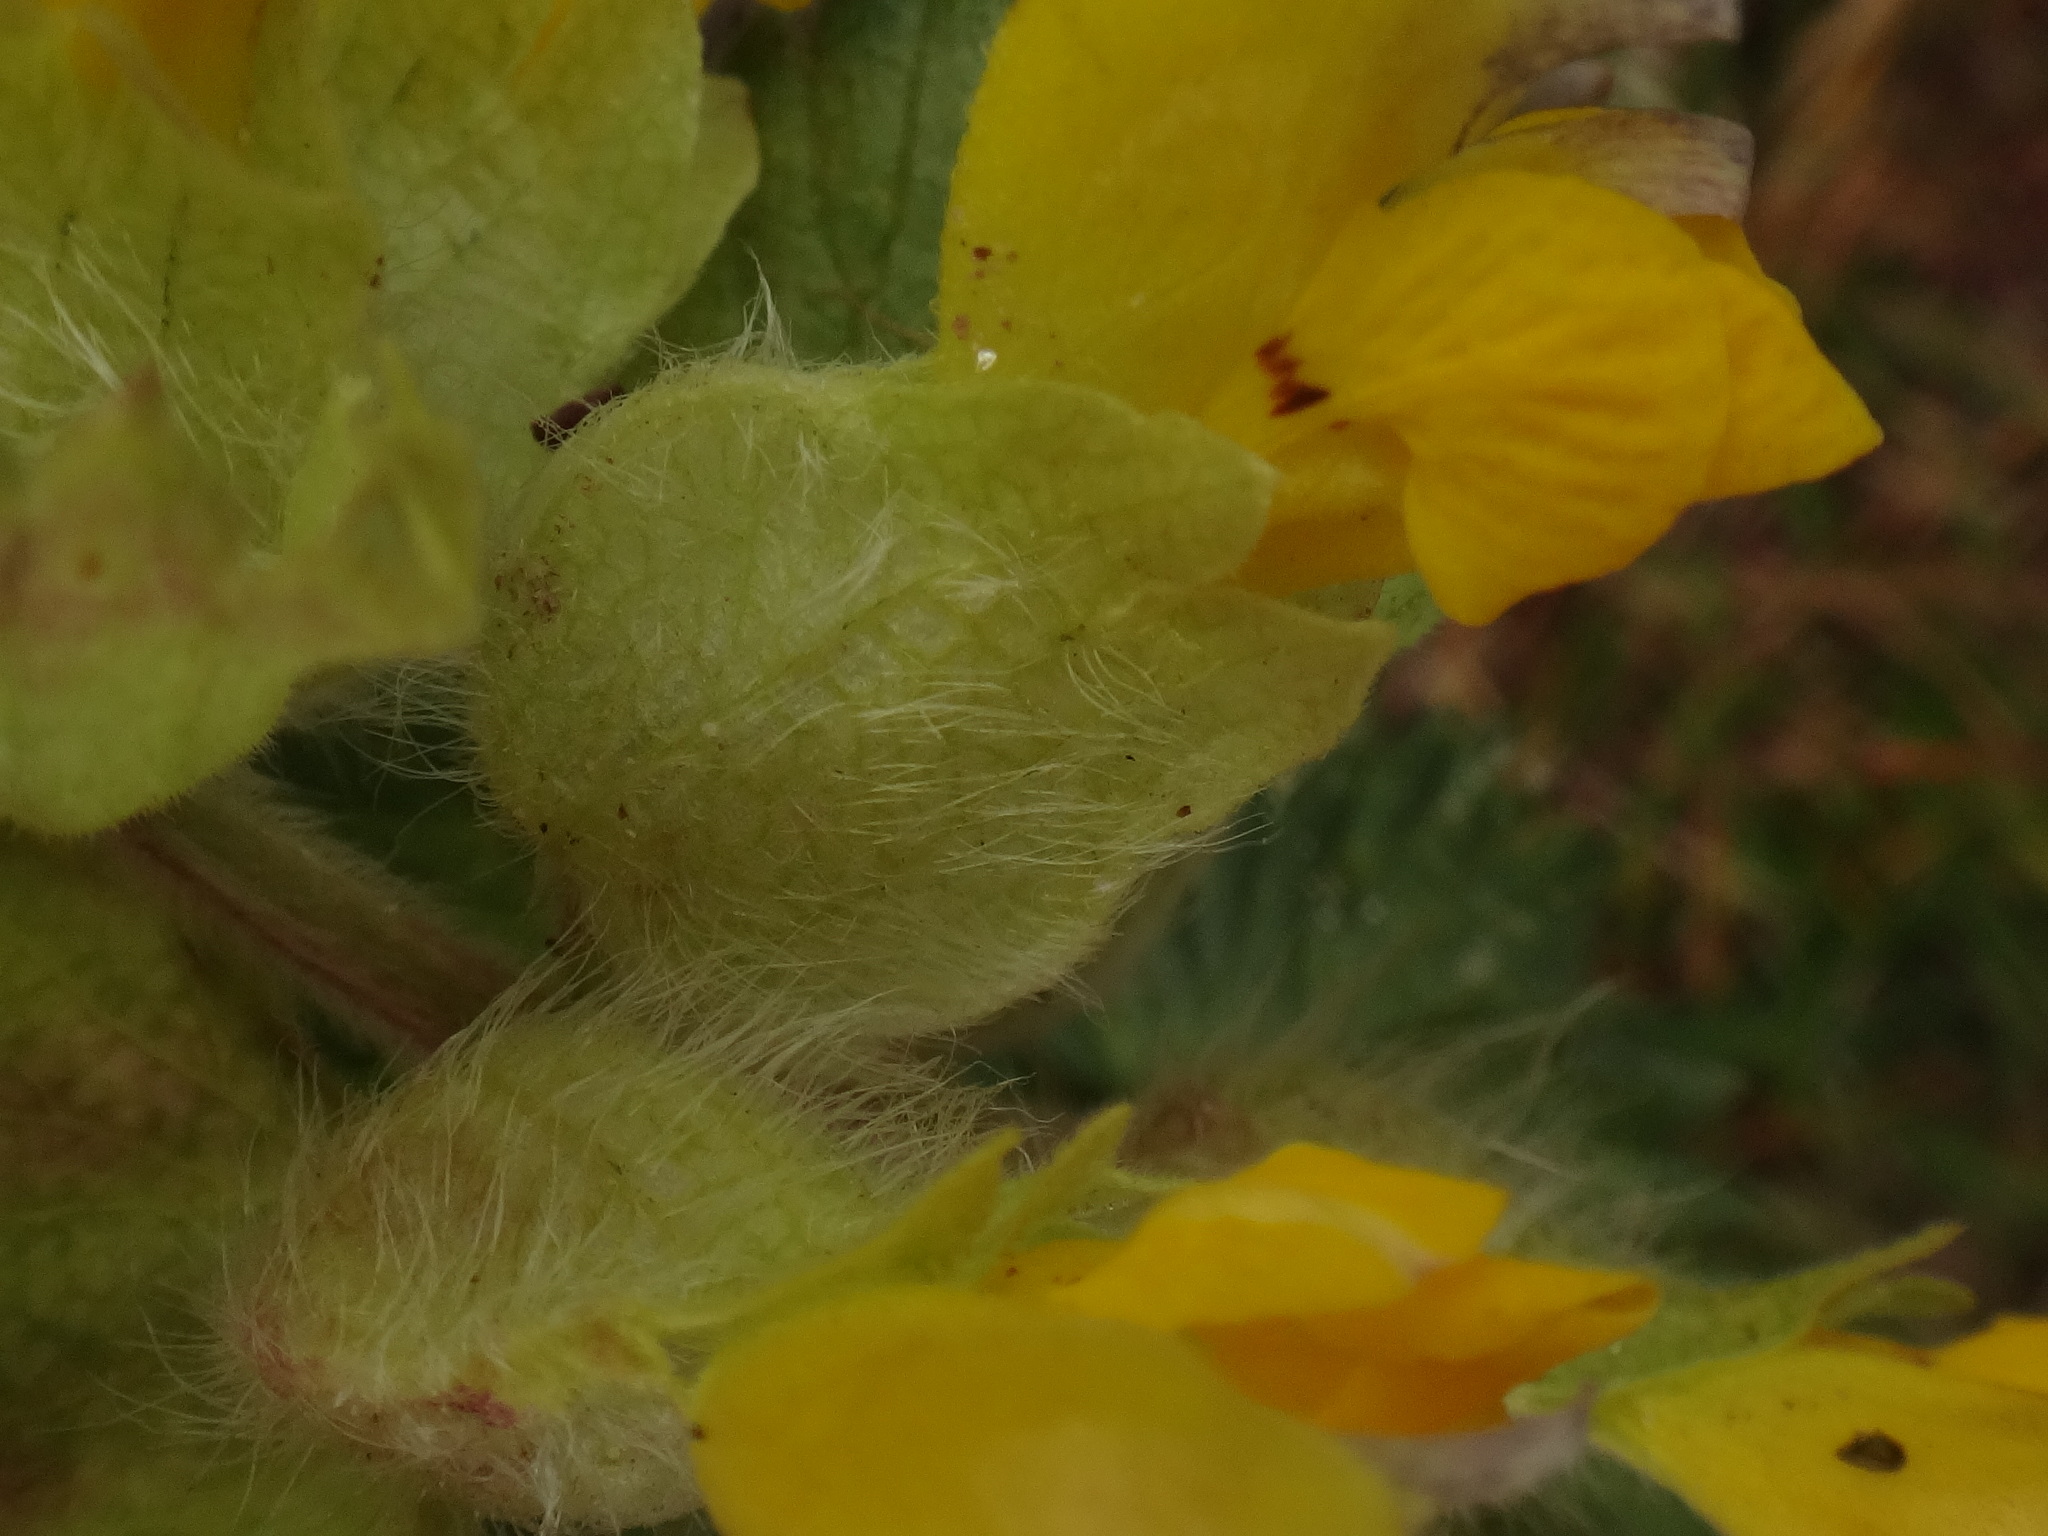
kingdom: Plantae
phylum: Tracheophyta
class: Magnoliopsida
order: Lamiales
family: Orobanchaceae
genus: Rhinanthus
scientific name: Rhinanthus alectorolophus
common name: Greater yellow-rattle
